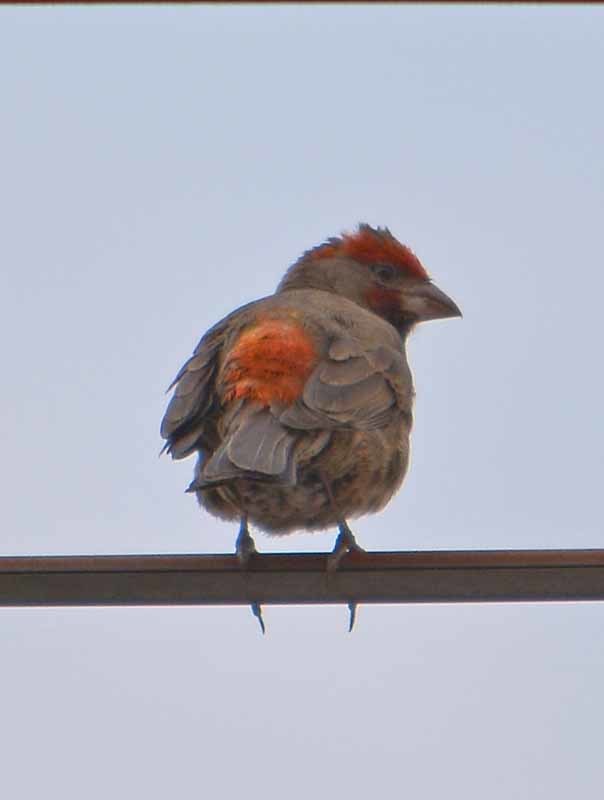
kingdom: Animalia
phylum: Chordata
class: Aves
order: Passeriformes
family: Fringillidae
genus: Haemorhous
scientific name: Haemorhous mexicanus
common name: House finch
